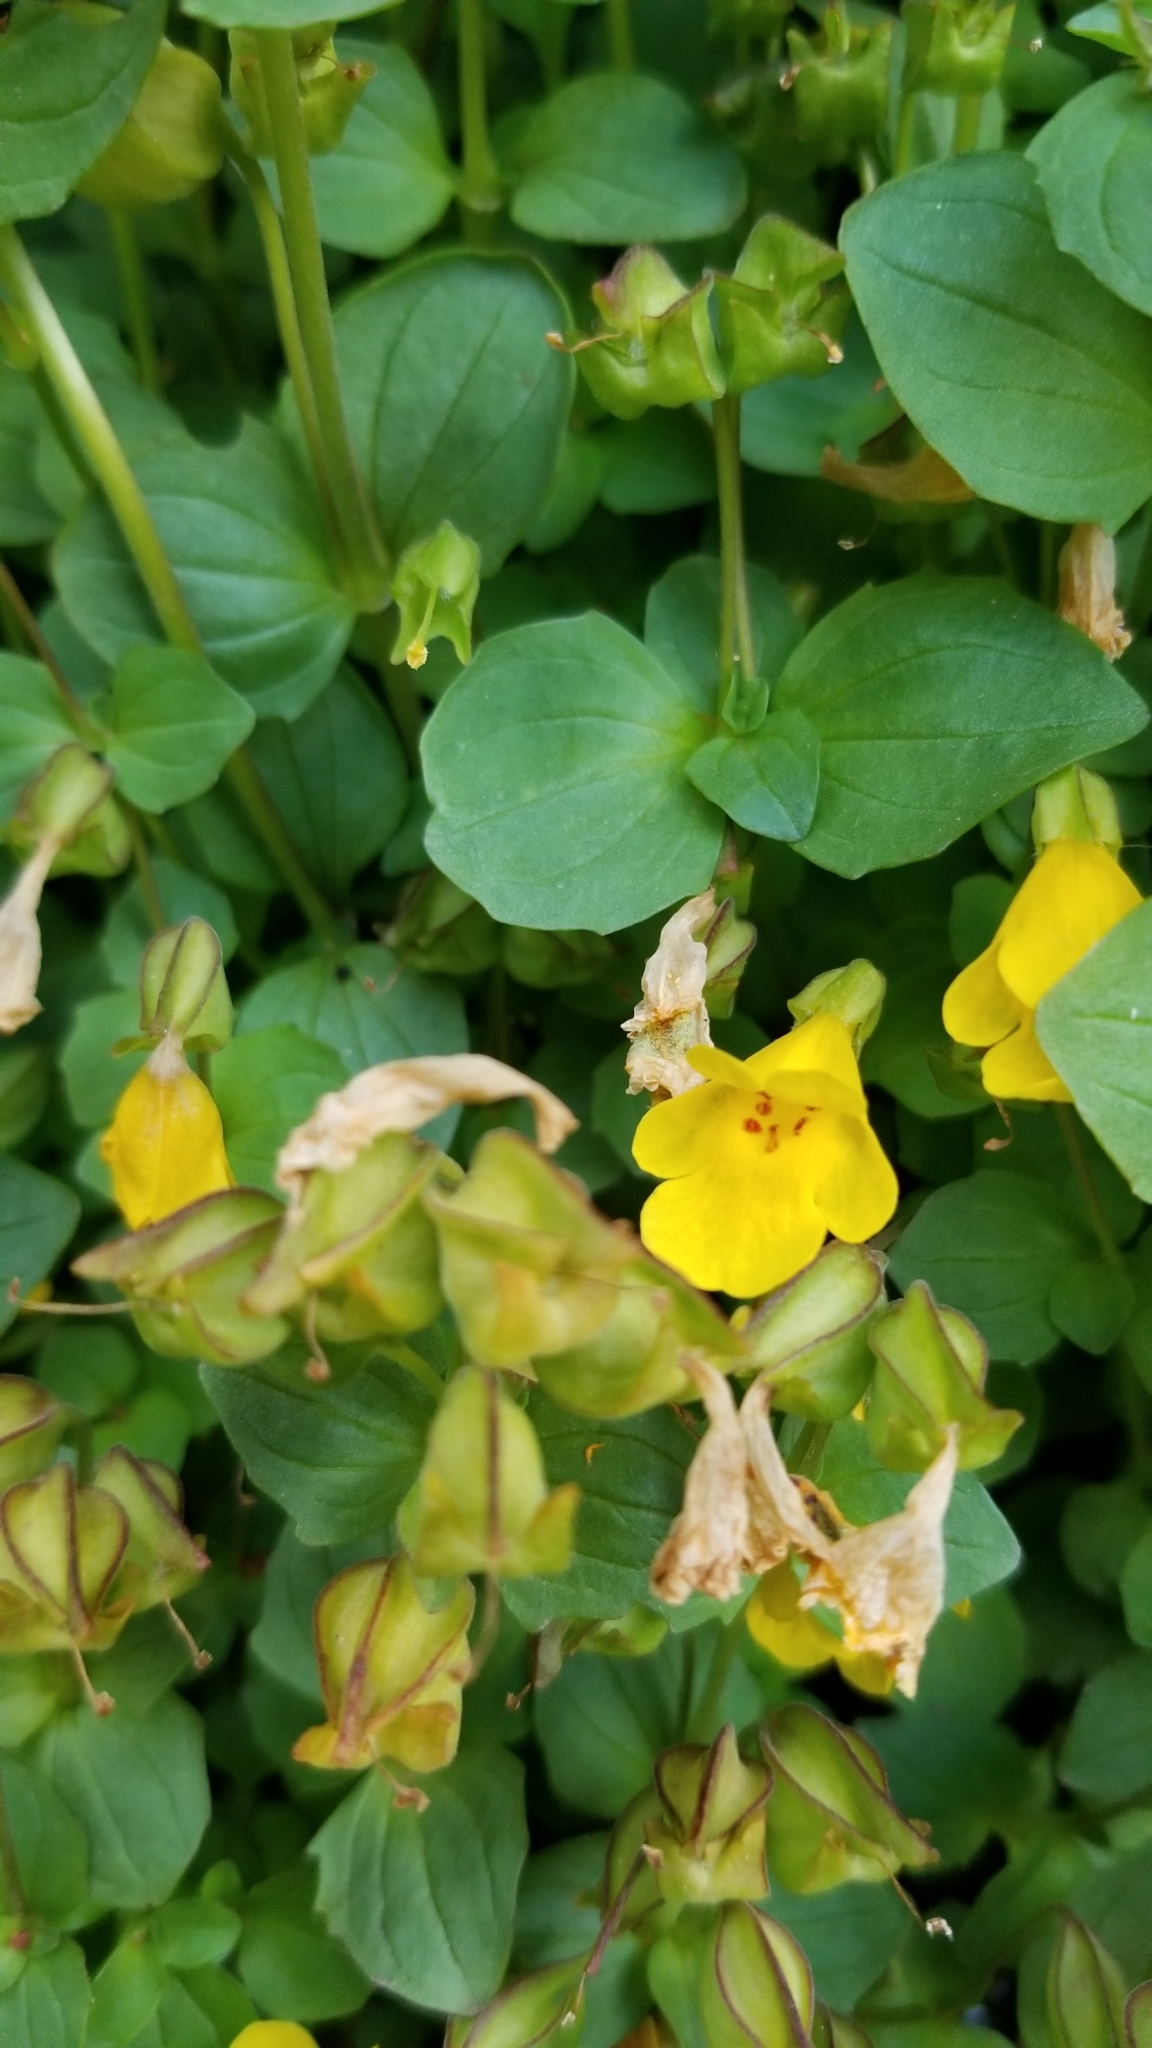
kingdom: Plantae
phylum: Tracheophyta
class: Magnoliopsida
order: Lamiales
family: Phrymaceae
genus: Erythranthe
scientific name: Erythranthe minor
